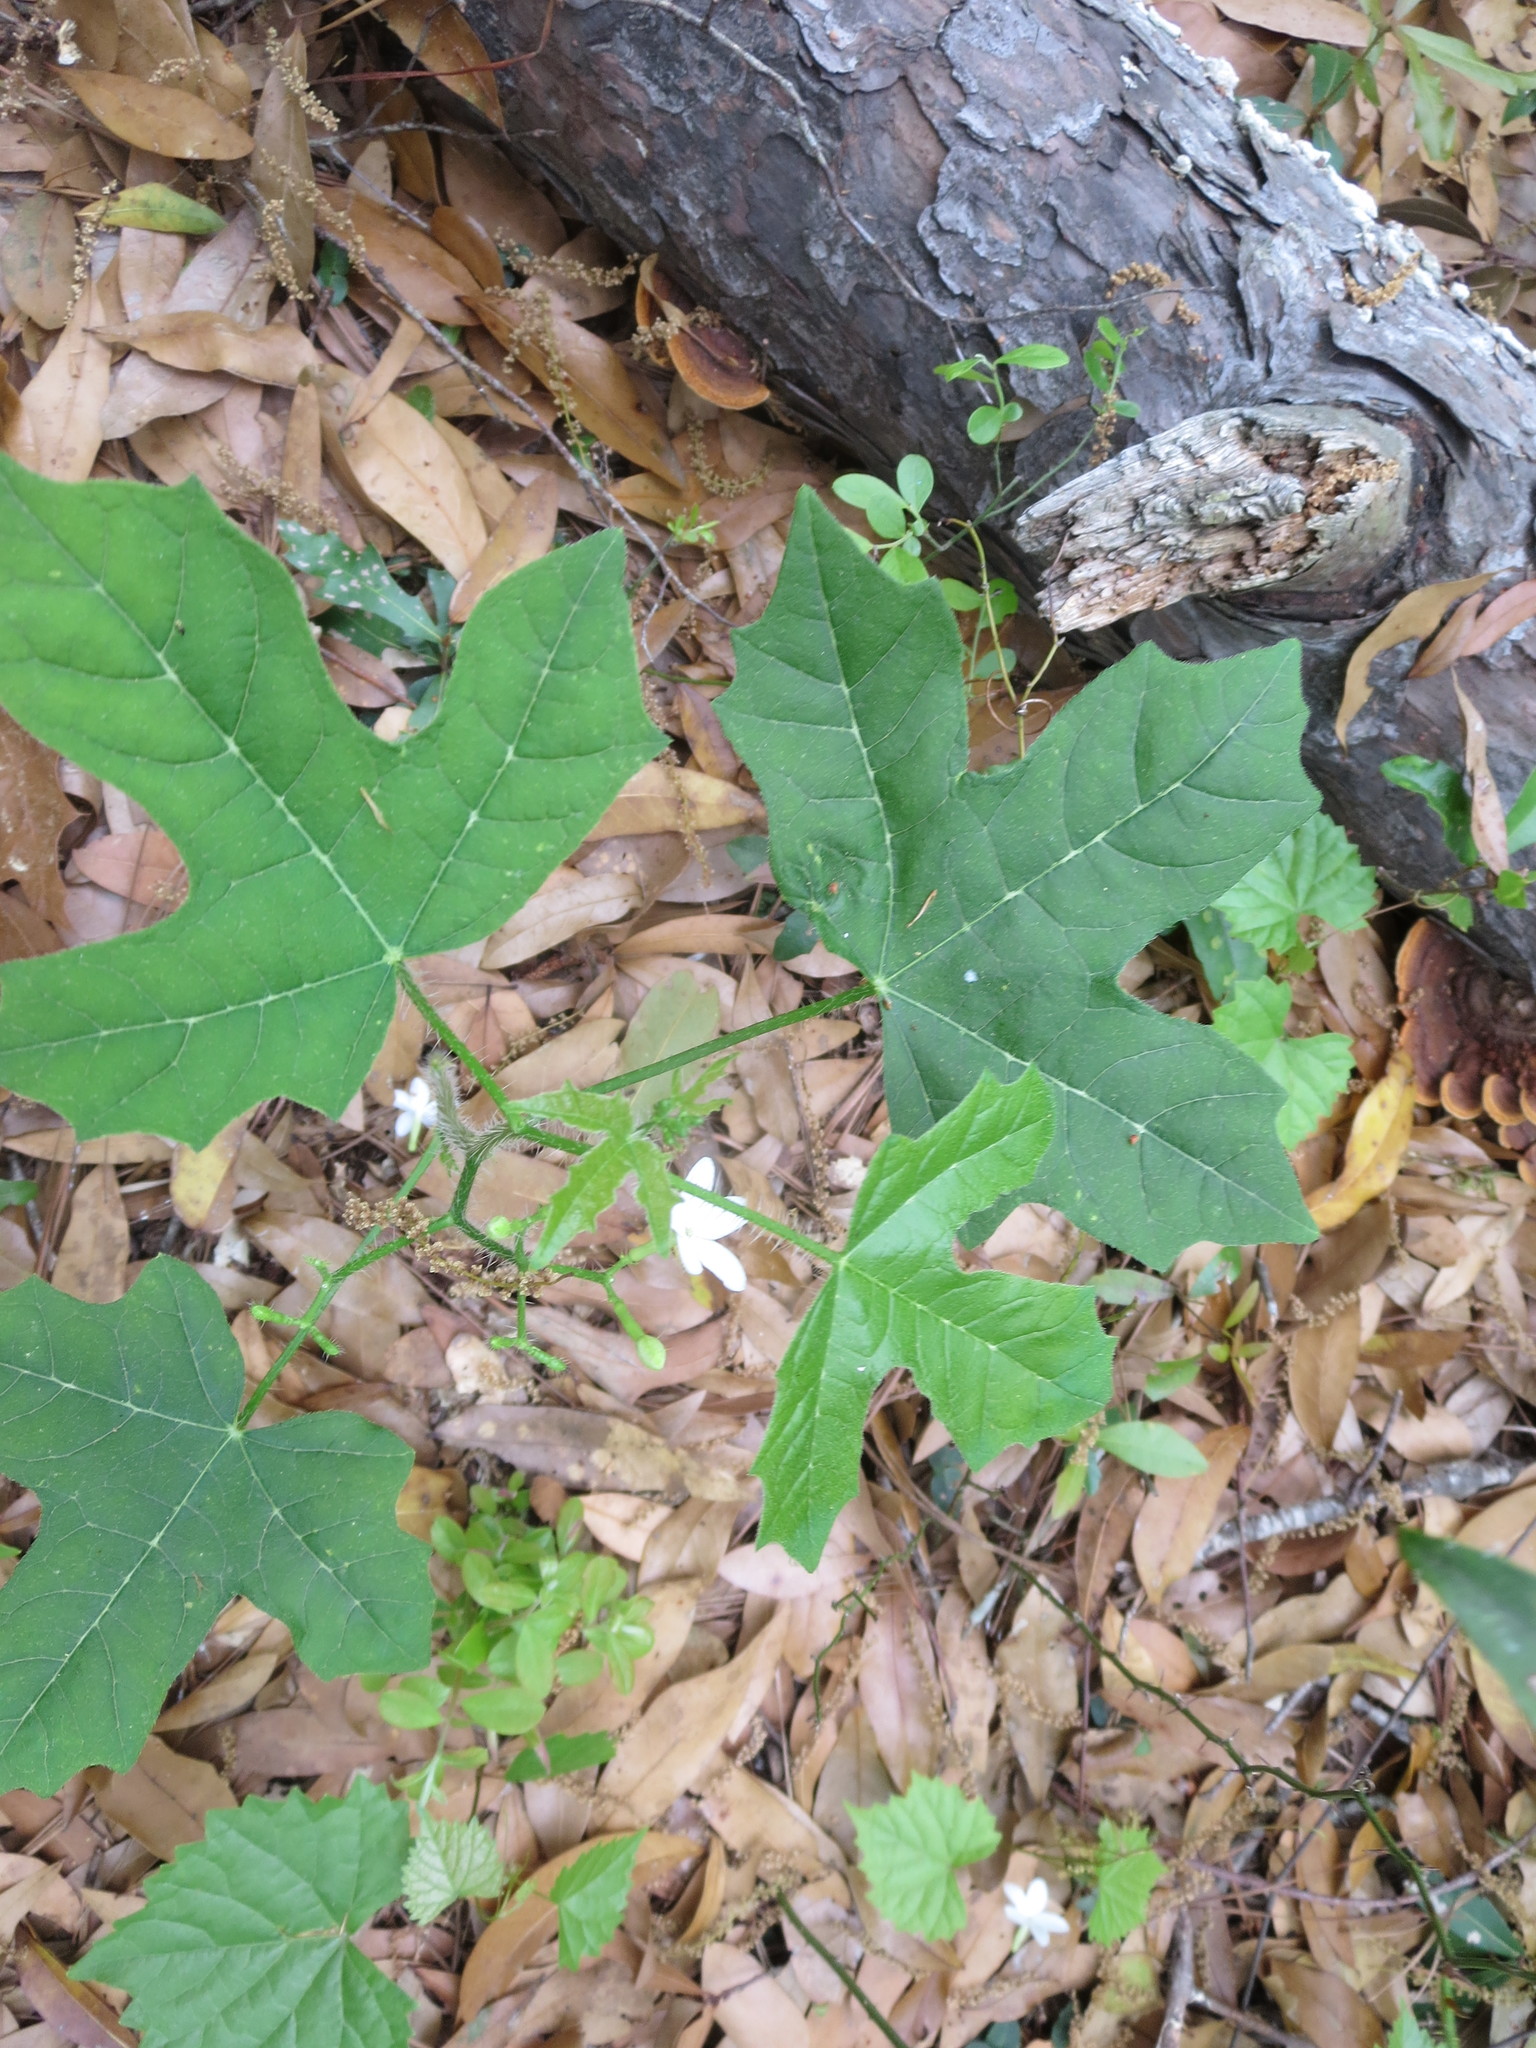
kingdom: Plantae
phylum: Tracheophyta
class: Magnoliopsida
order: Malpighiales
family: Euphorbiaceae
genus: Cnidoscolus
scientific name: Cnidoscolus stimulosus
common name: Bull-nettle
